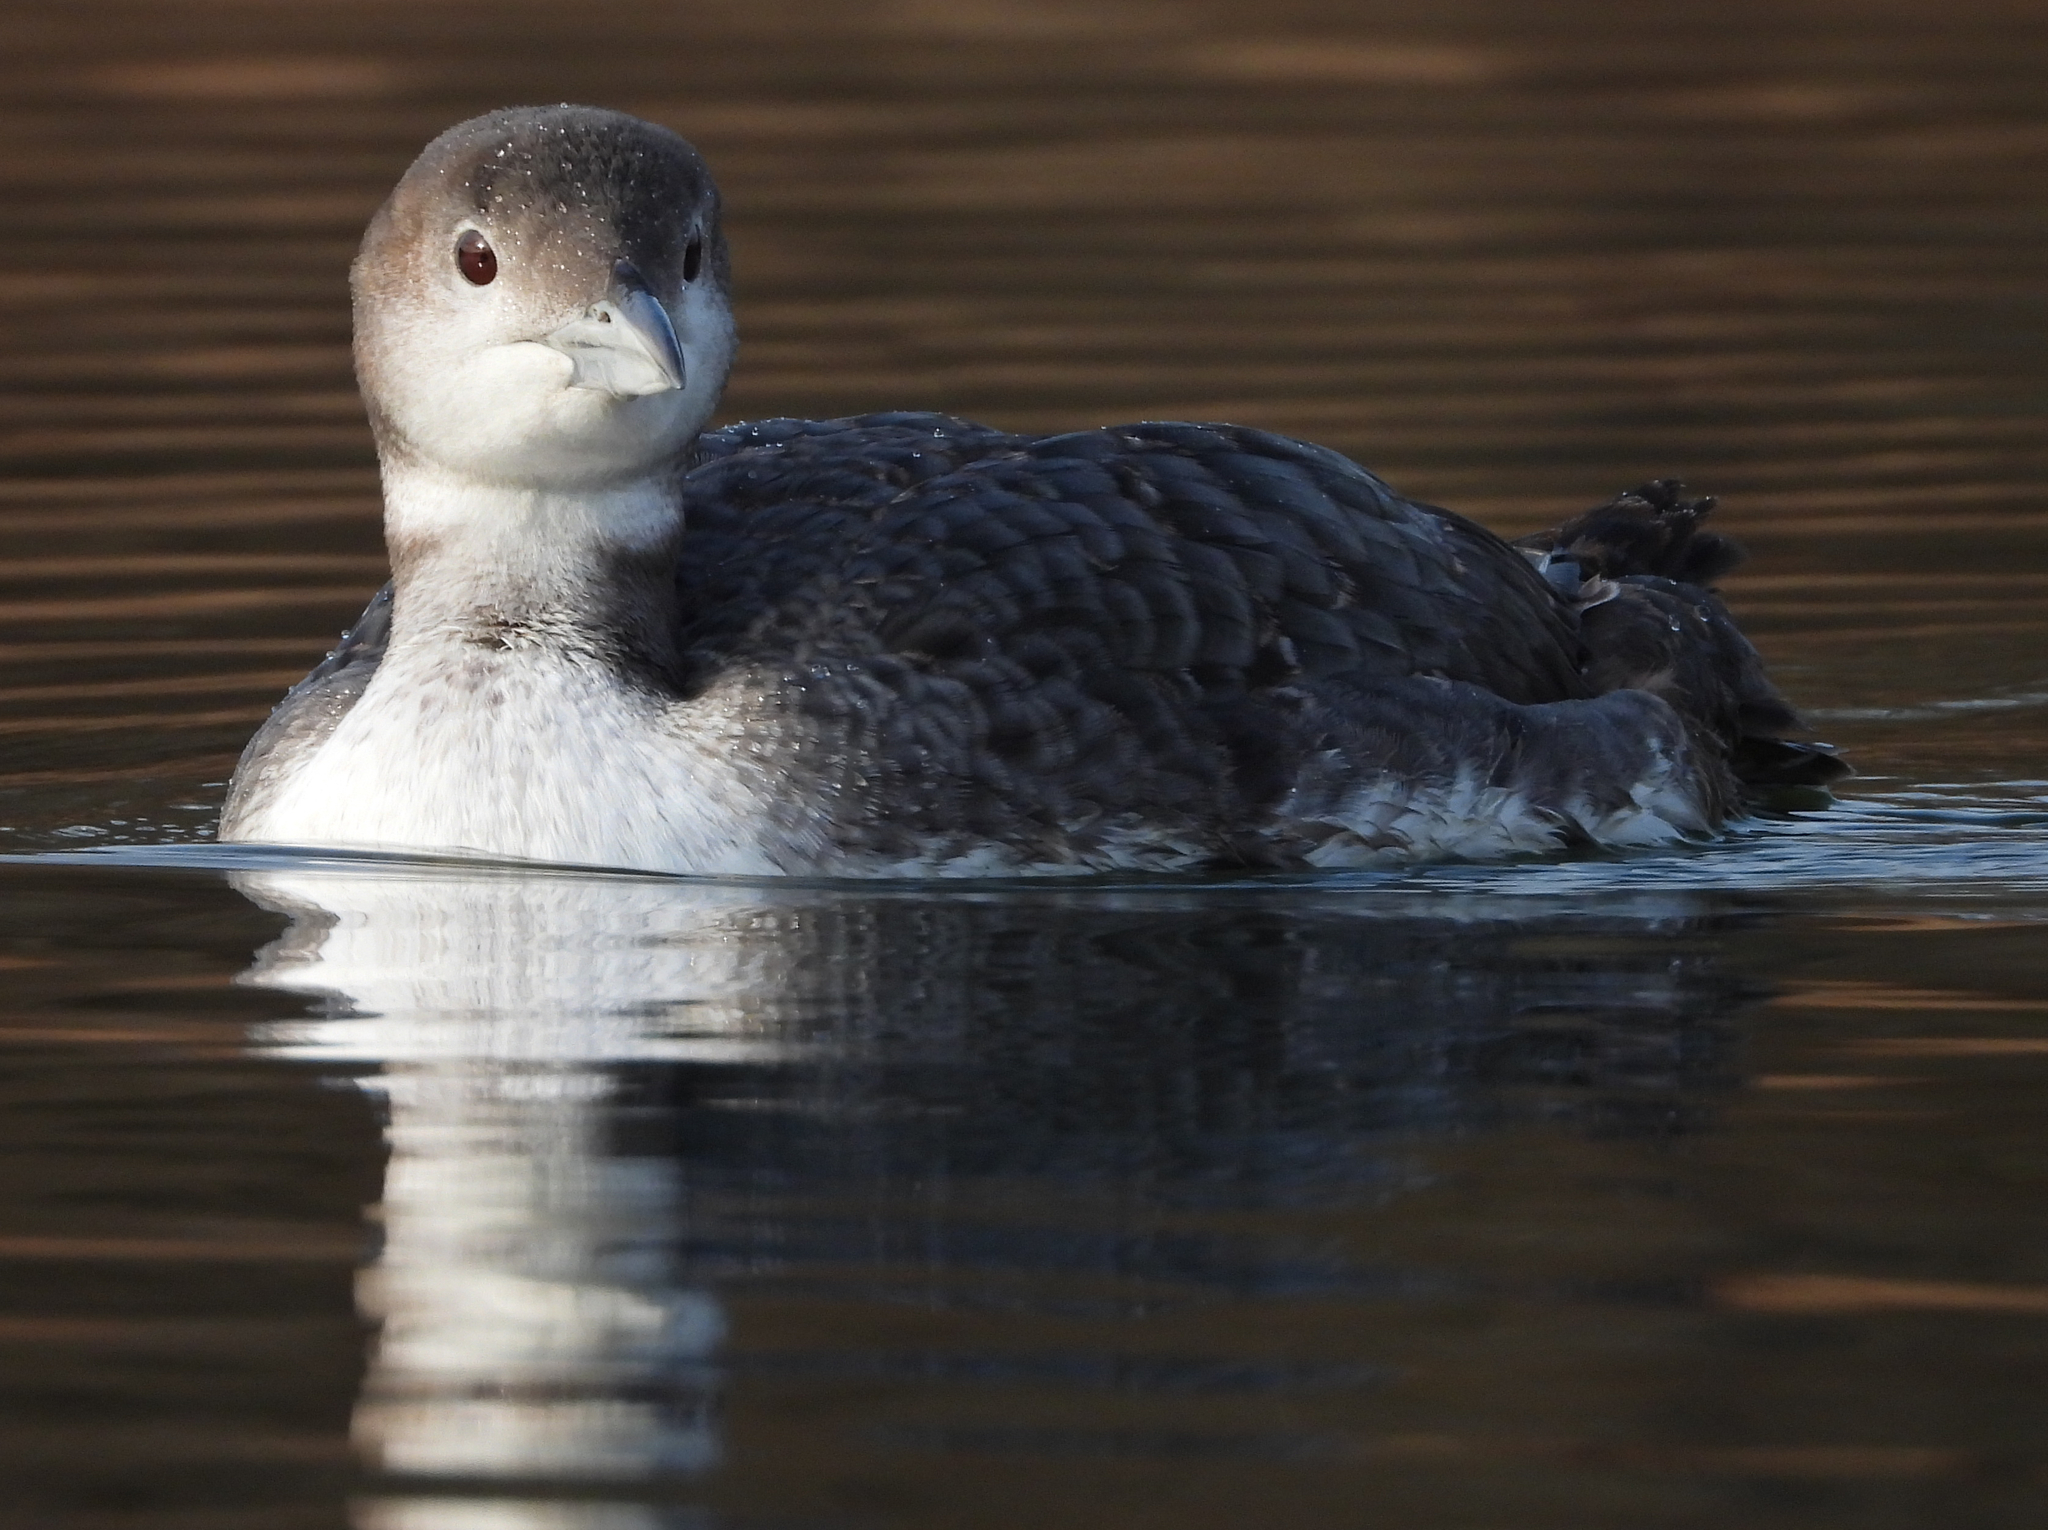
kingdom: Animalia
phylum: Chordata
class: Aves
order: Gaviiformes
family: Gaviidae
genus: Gavia
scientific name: Gavia immer
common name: Common loon
